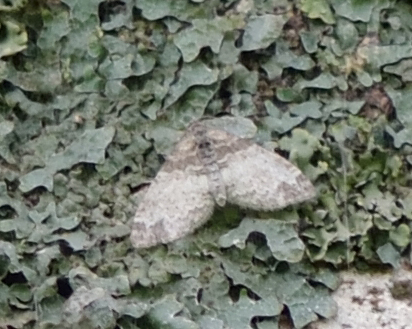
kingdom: Animalia
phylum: Arthropoda
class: Insecta
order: Lepidoptera
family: Geometridae
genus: Lobophora
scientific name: Lobophora halterata
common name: Seraphim
